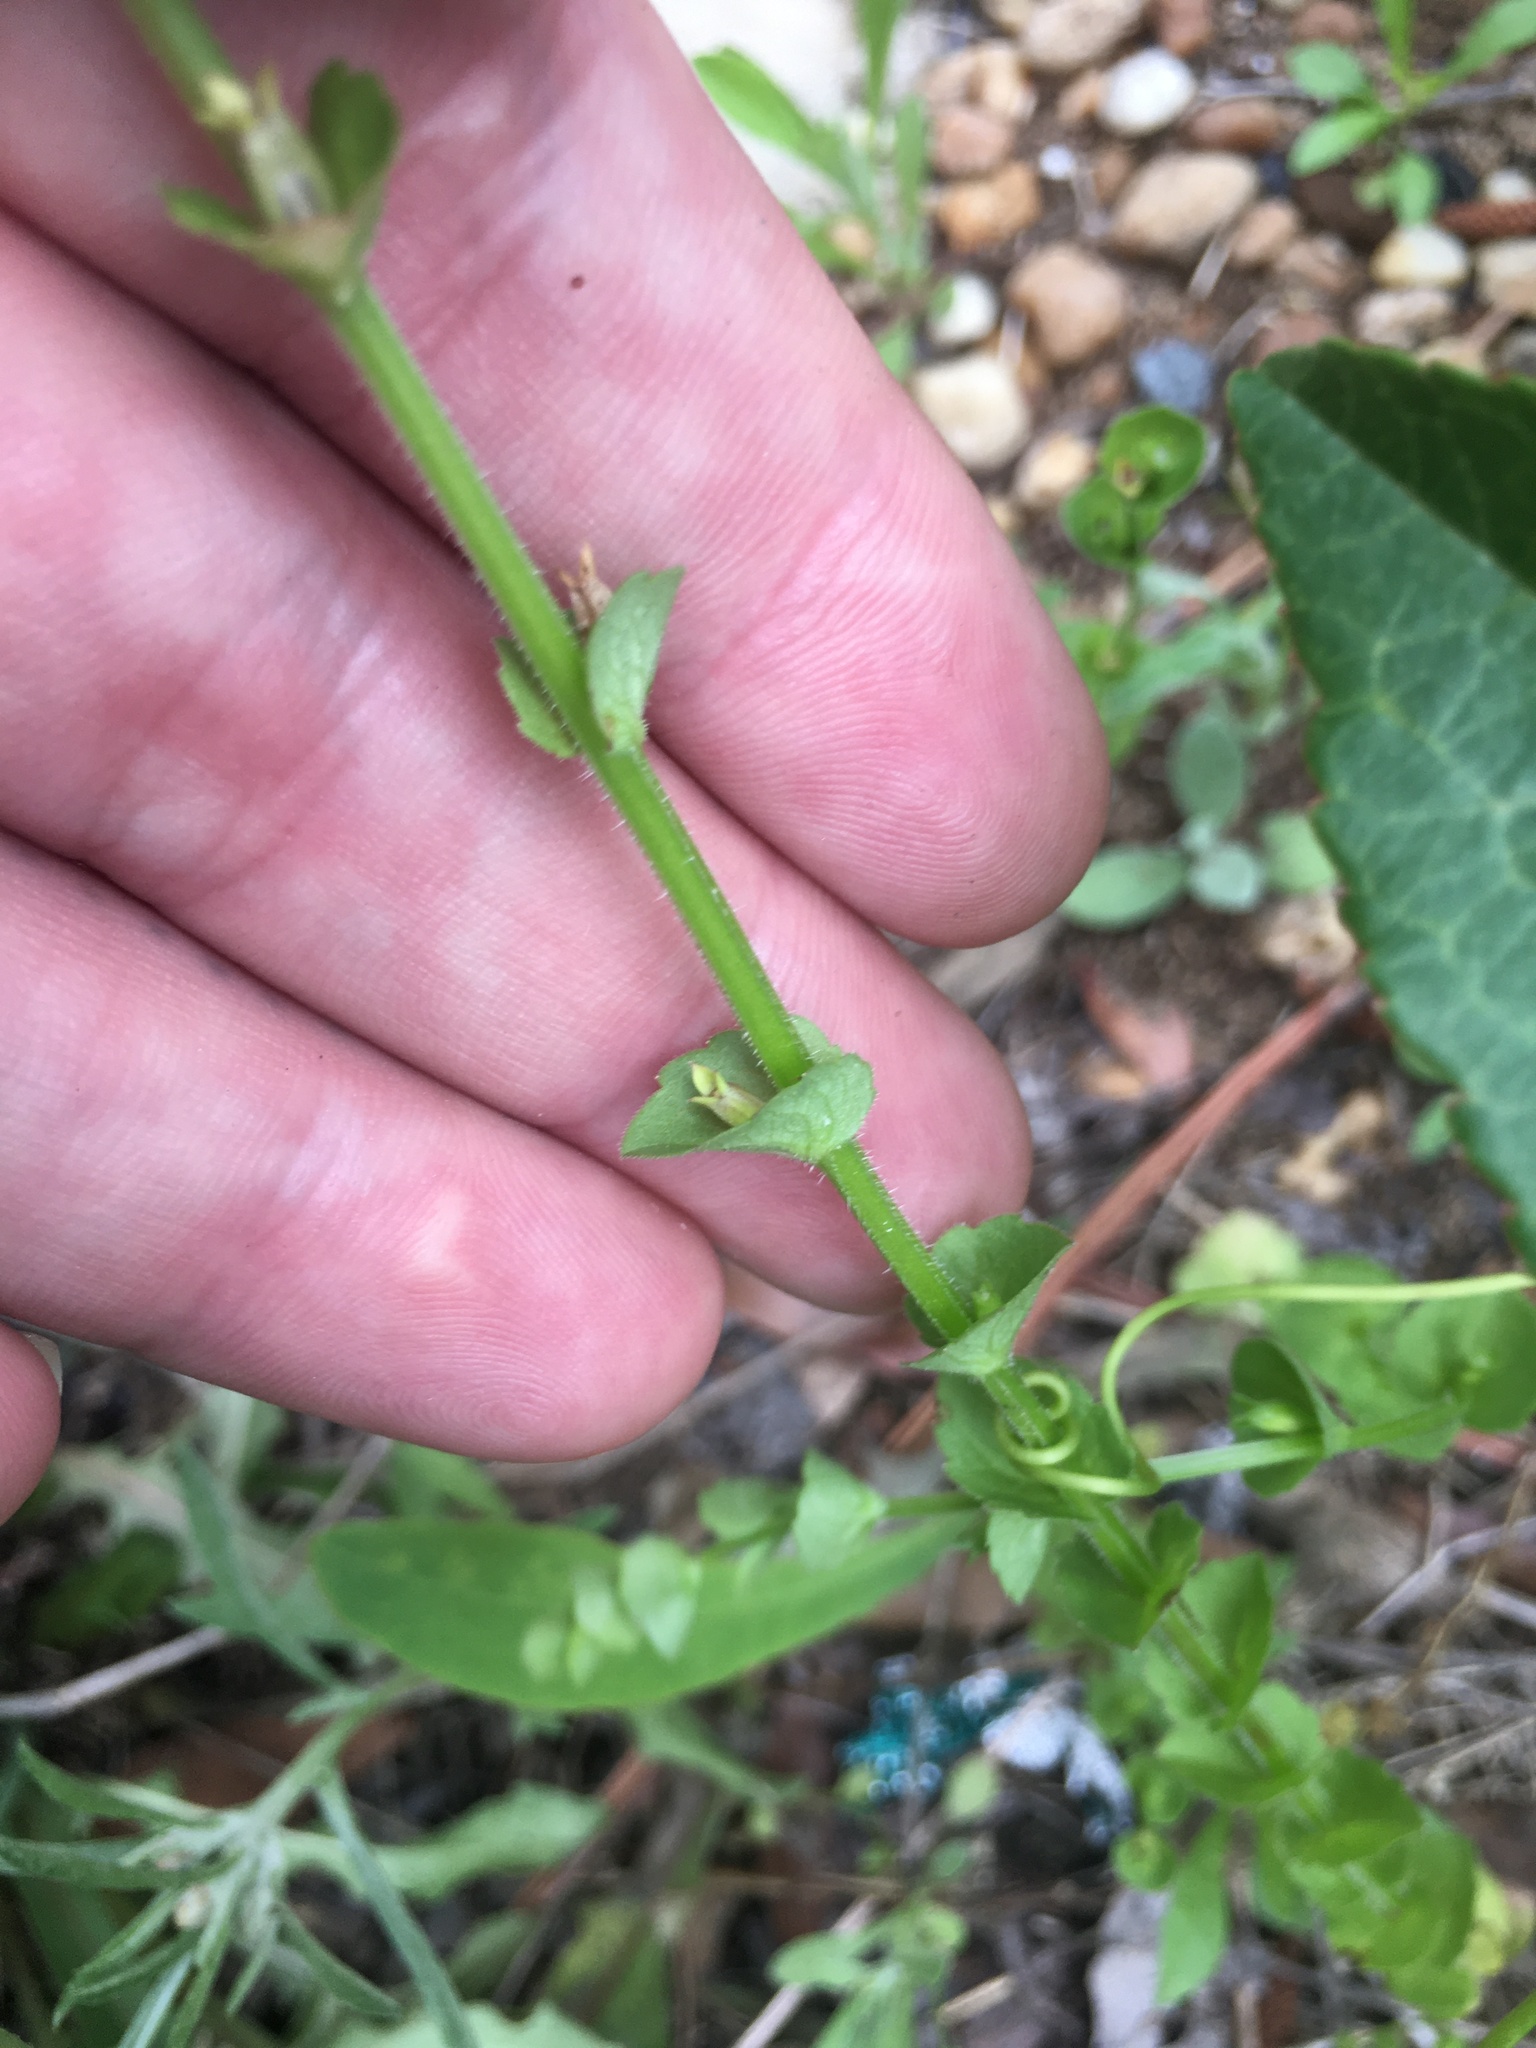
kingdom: Plantae
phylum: Tracheophyta
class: Magnoliopsida
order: Asterales
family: Campanulaceae
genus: Triodanis
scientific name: Triodanis perfoliata
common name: Clasping venus' looking-glass
